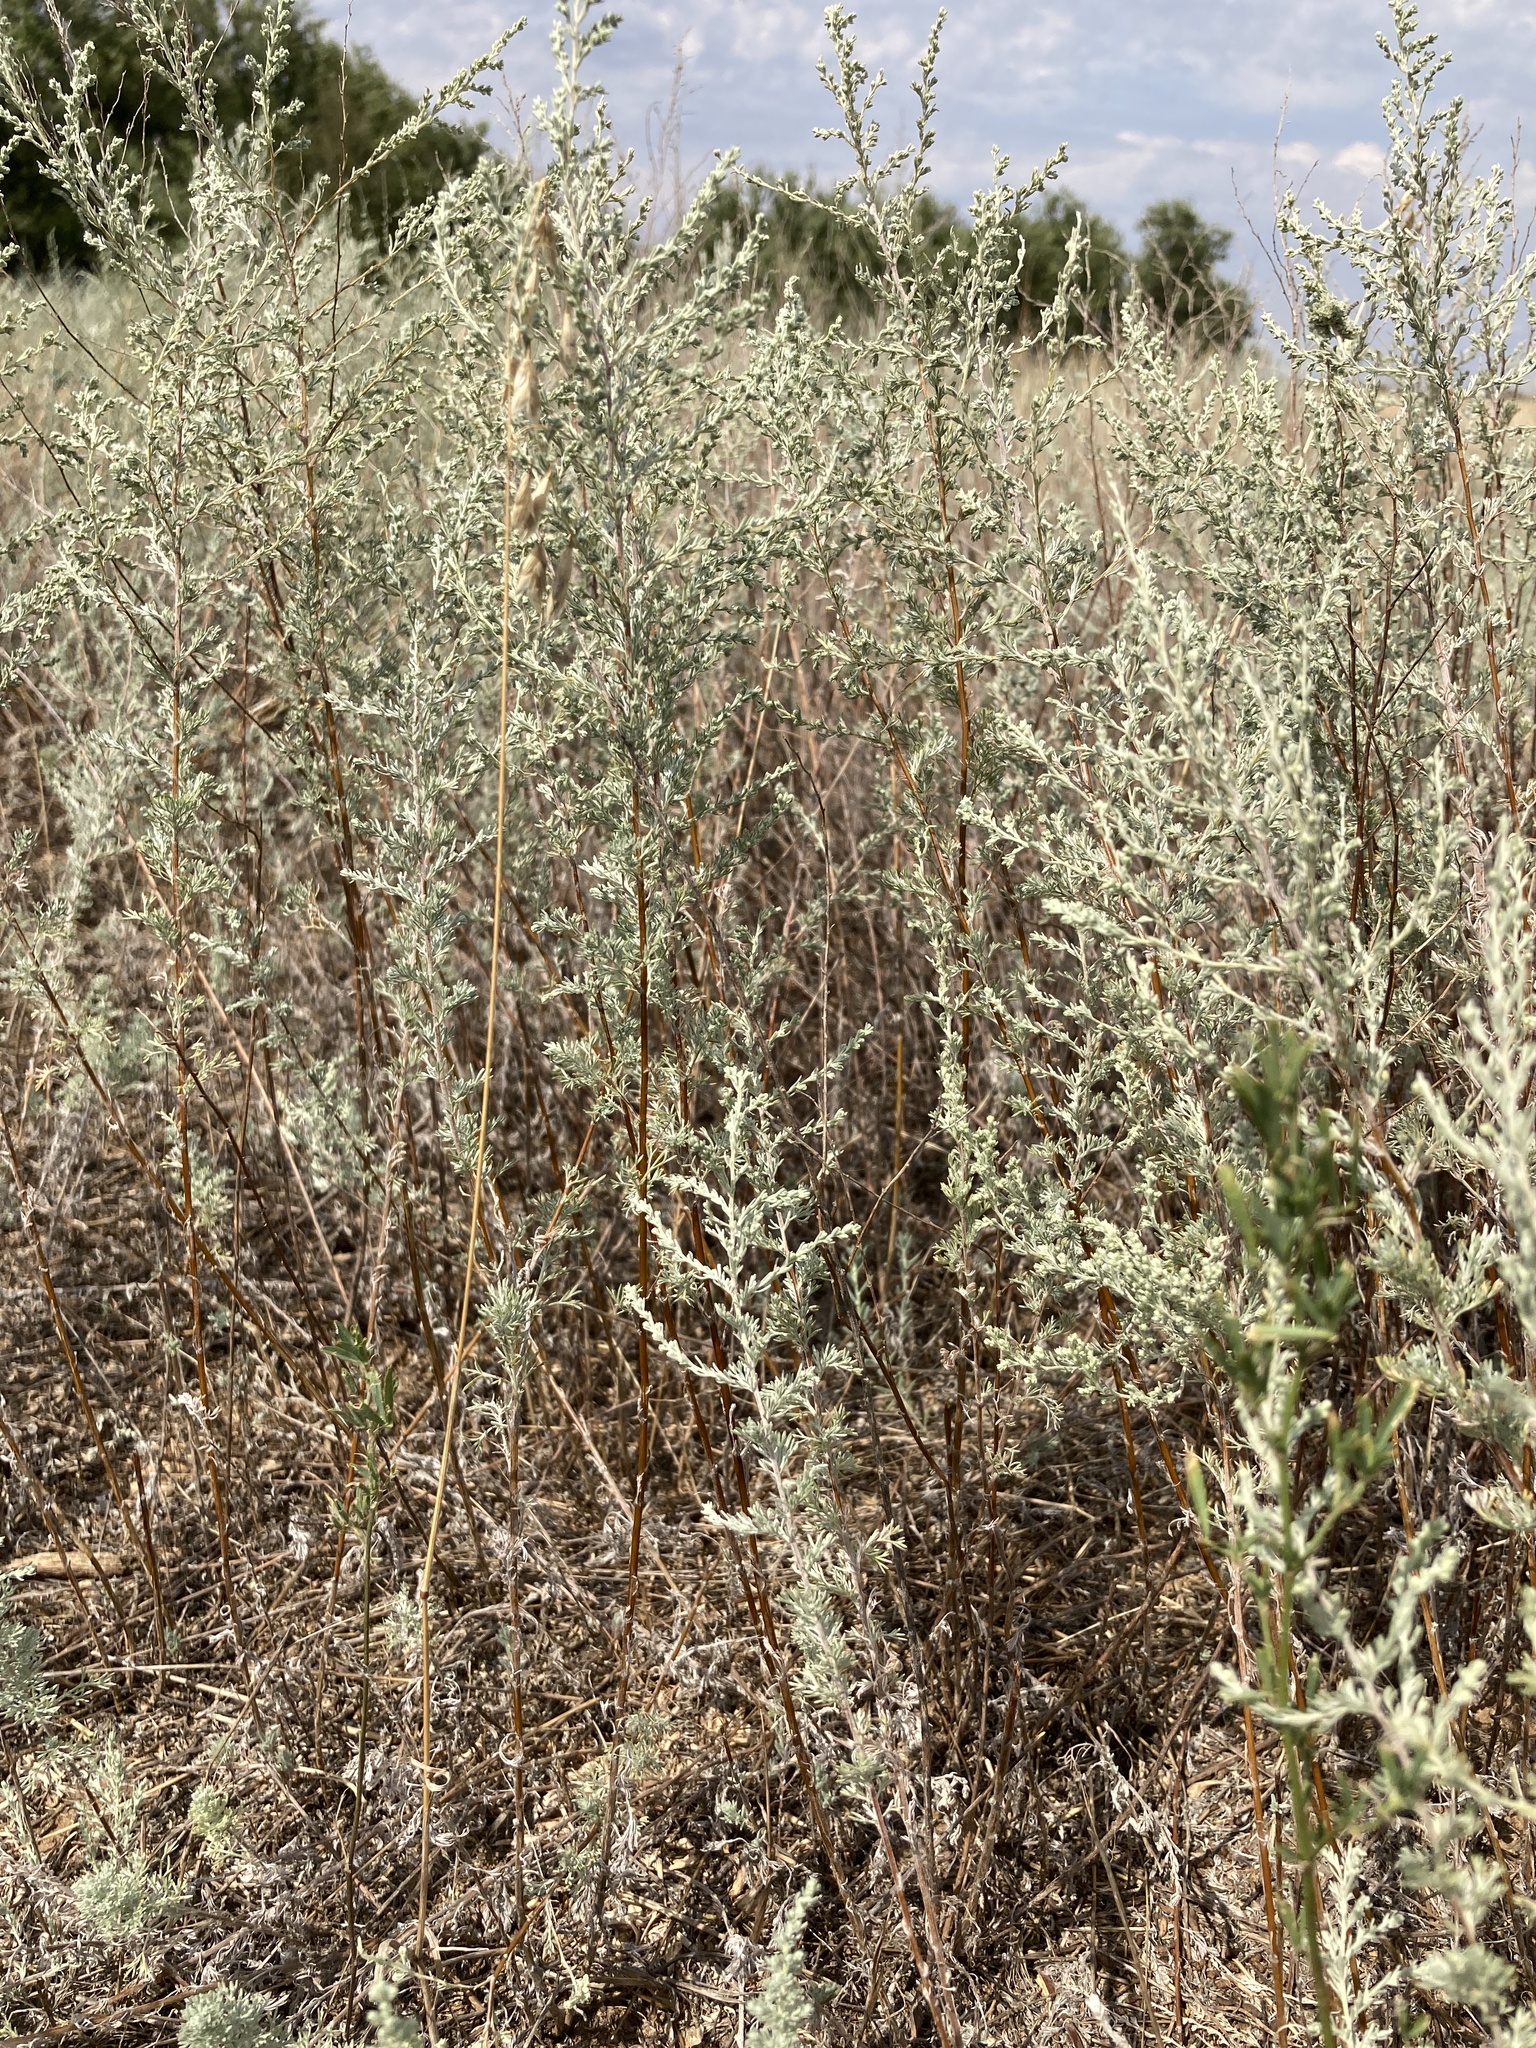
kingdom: Plantae
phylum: Tracheophyta
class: Magnoliopsida
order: Asterales
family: Asteraceae
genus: Artemisia
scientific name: Artemisia austriaca
